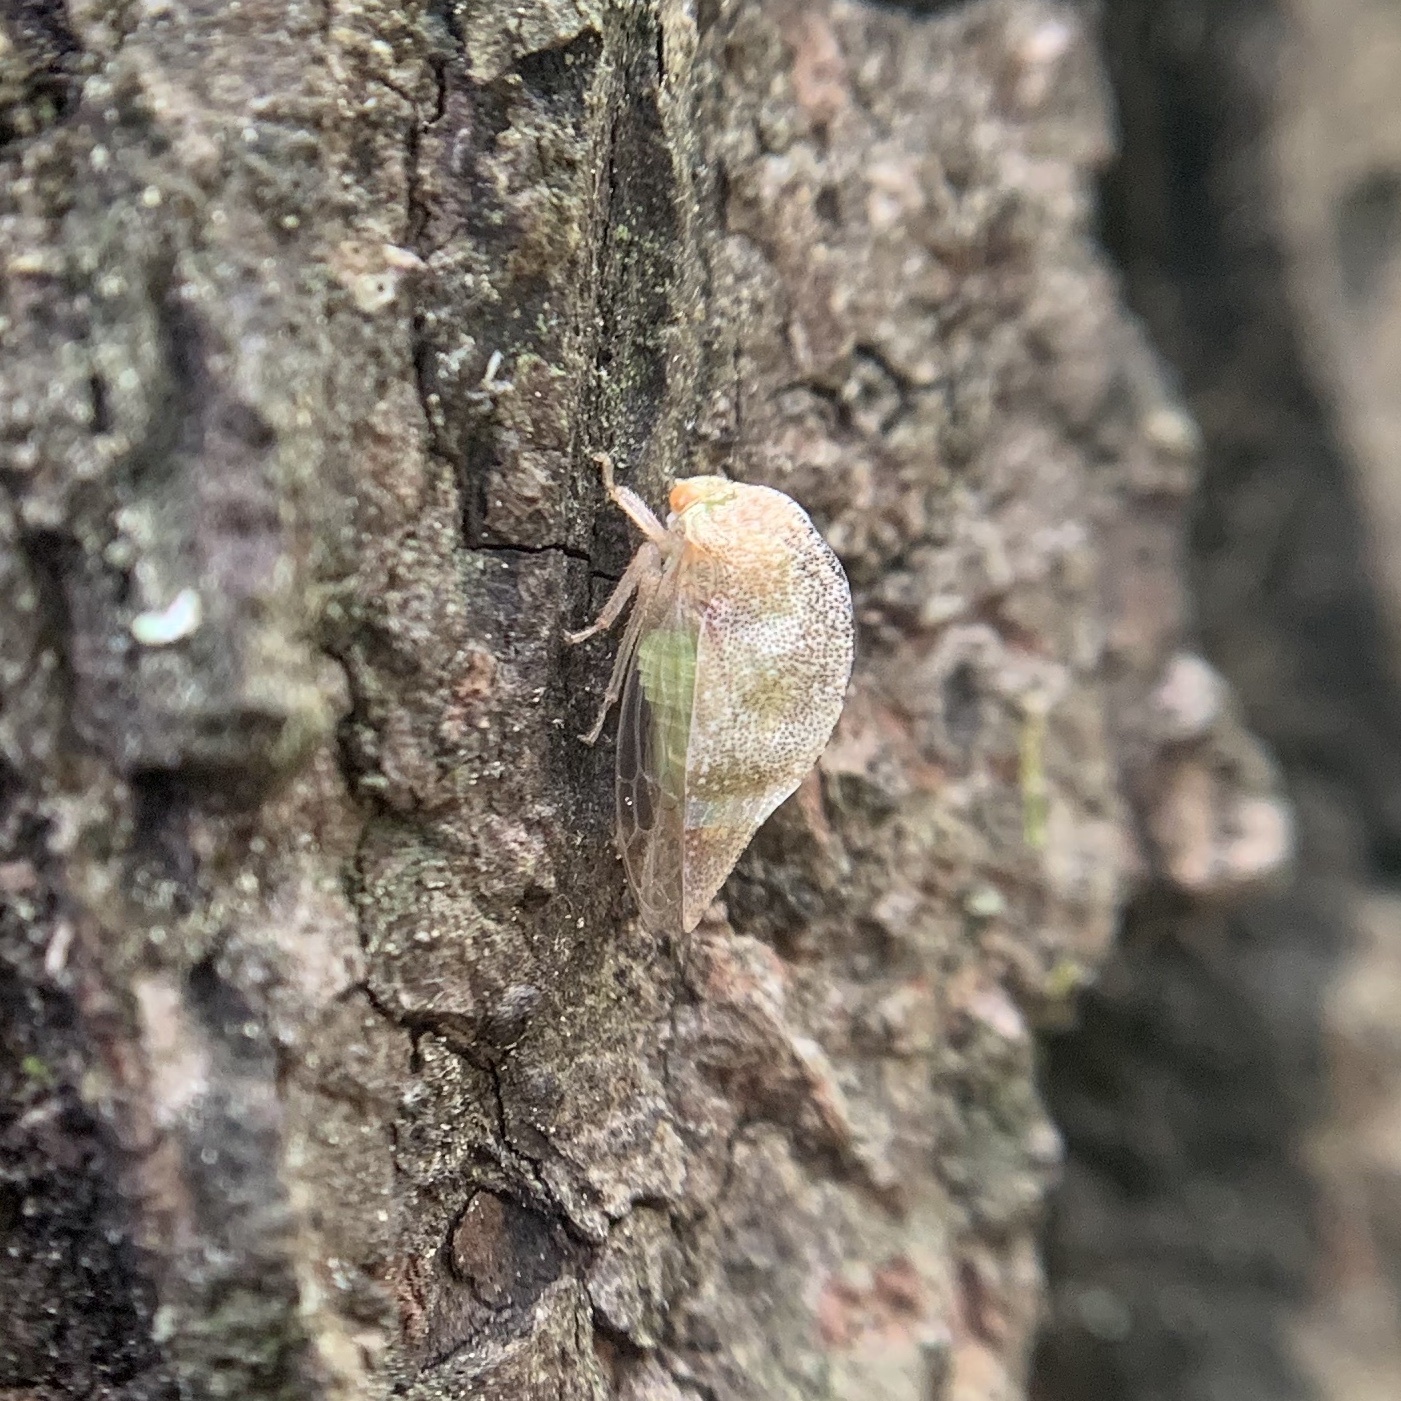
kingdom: Animalia
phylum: Arthropoda
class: Insecta
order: Hemiptera
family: Membracidae
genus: Cyrtolobus
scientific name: Cyrtolobus arcuata
